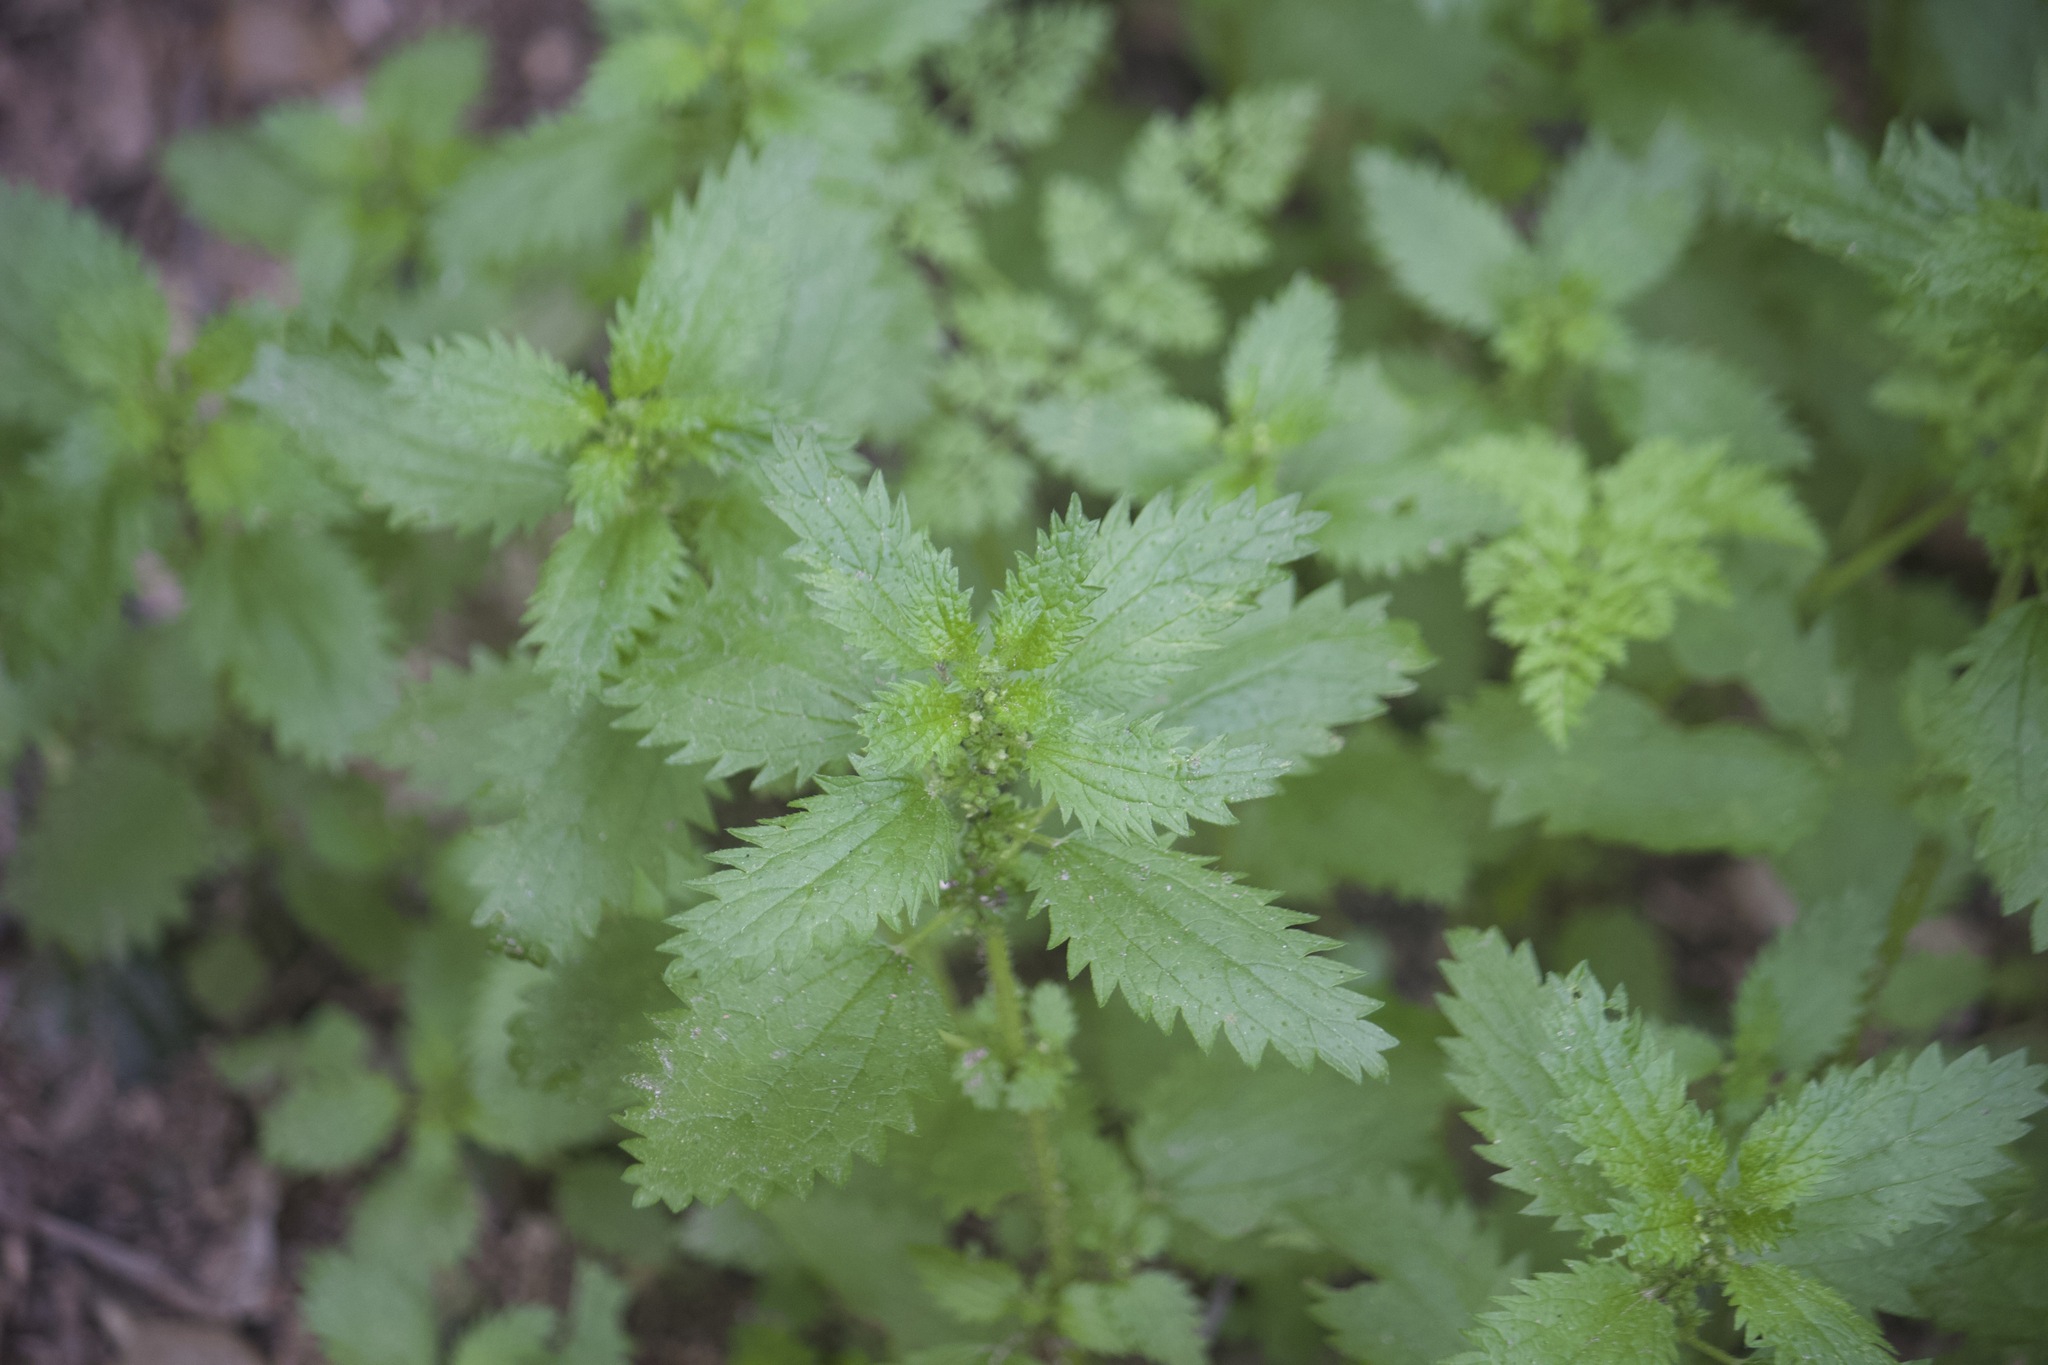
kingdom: Plantae
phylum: Tracheophyta
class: Magnoliopsida
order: Rosales
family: Urticaceae
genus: Urtica
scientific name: Urtica urens
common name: Dwarf nettle
